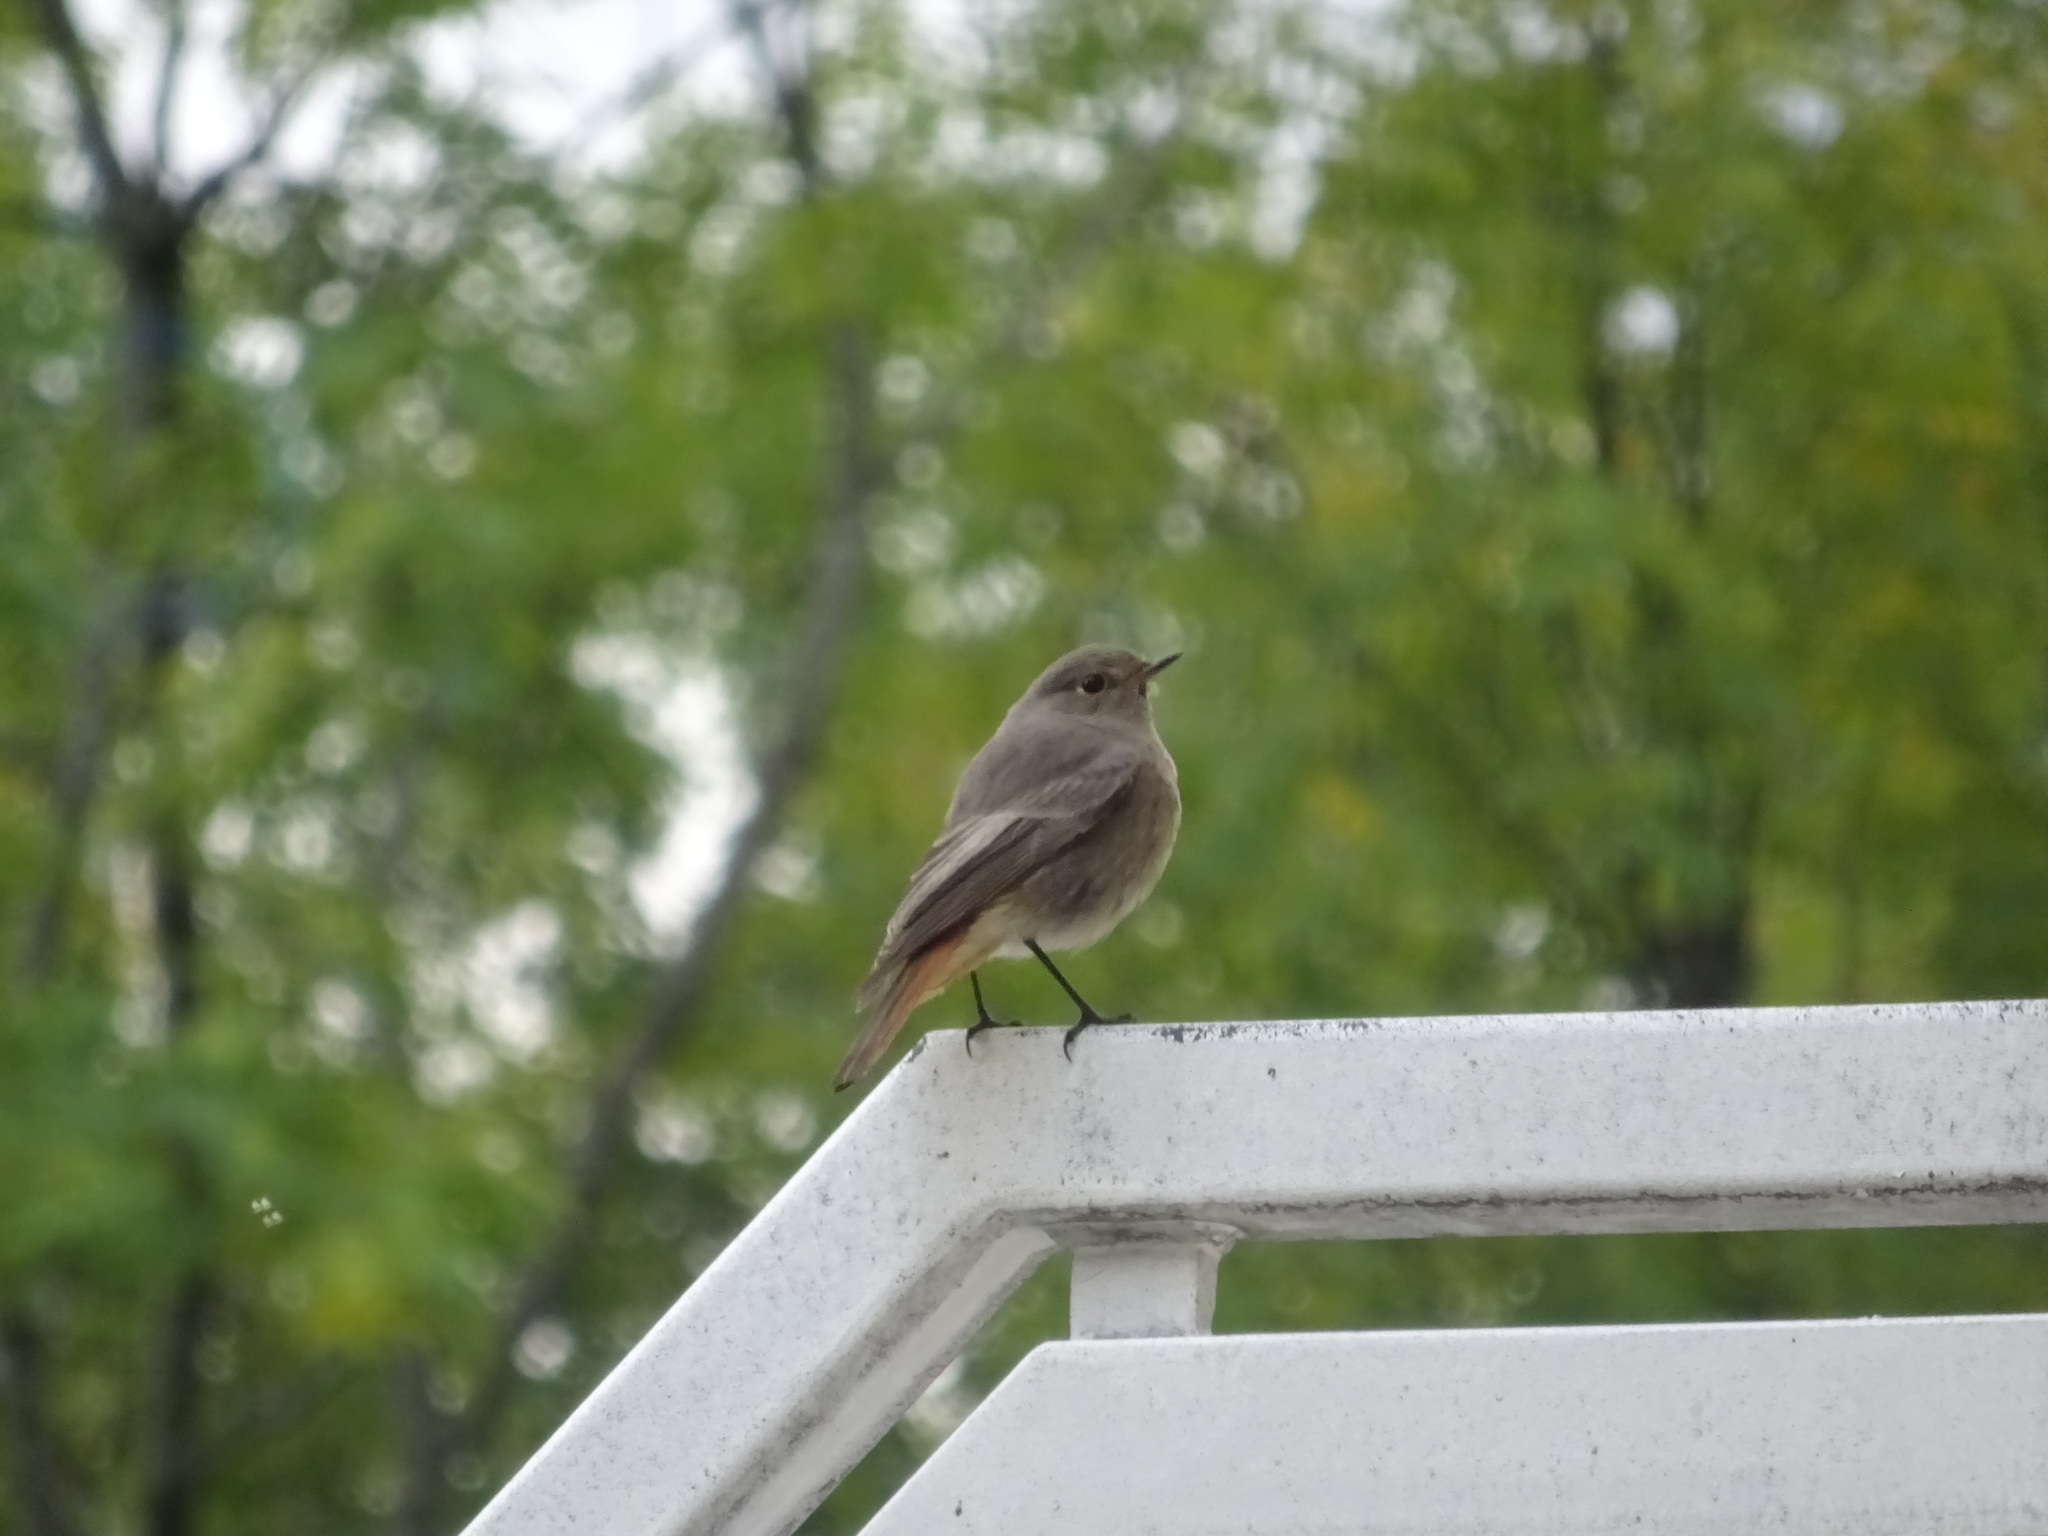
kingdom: Animalia
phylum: Chordata
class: Aves
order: Passeriformes
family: Muscicapidae
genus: Phoenicurus
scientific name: Phoenicurus ochruros
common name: Black redstart
